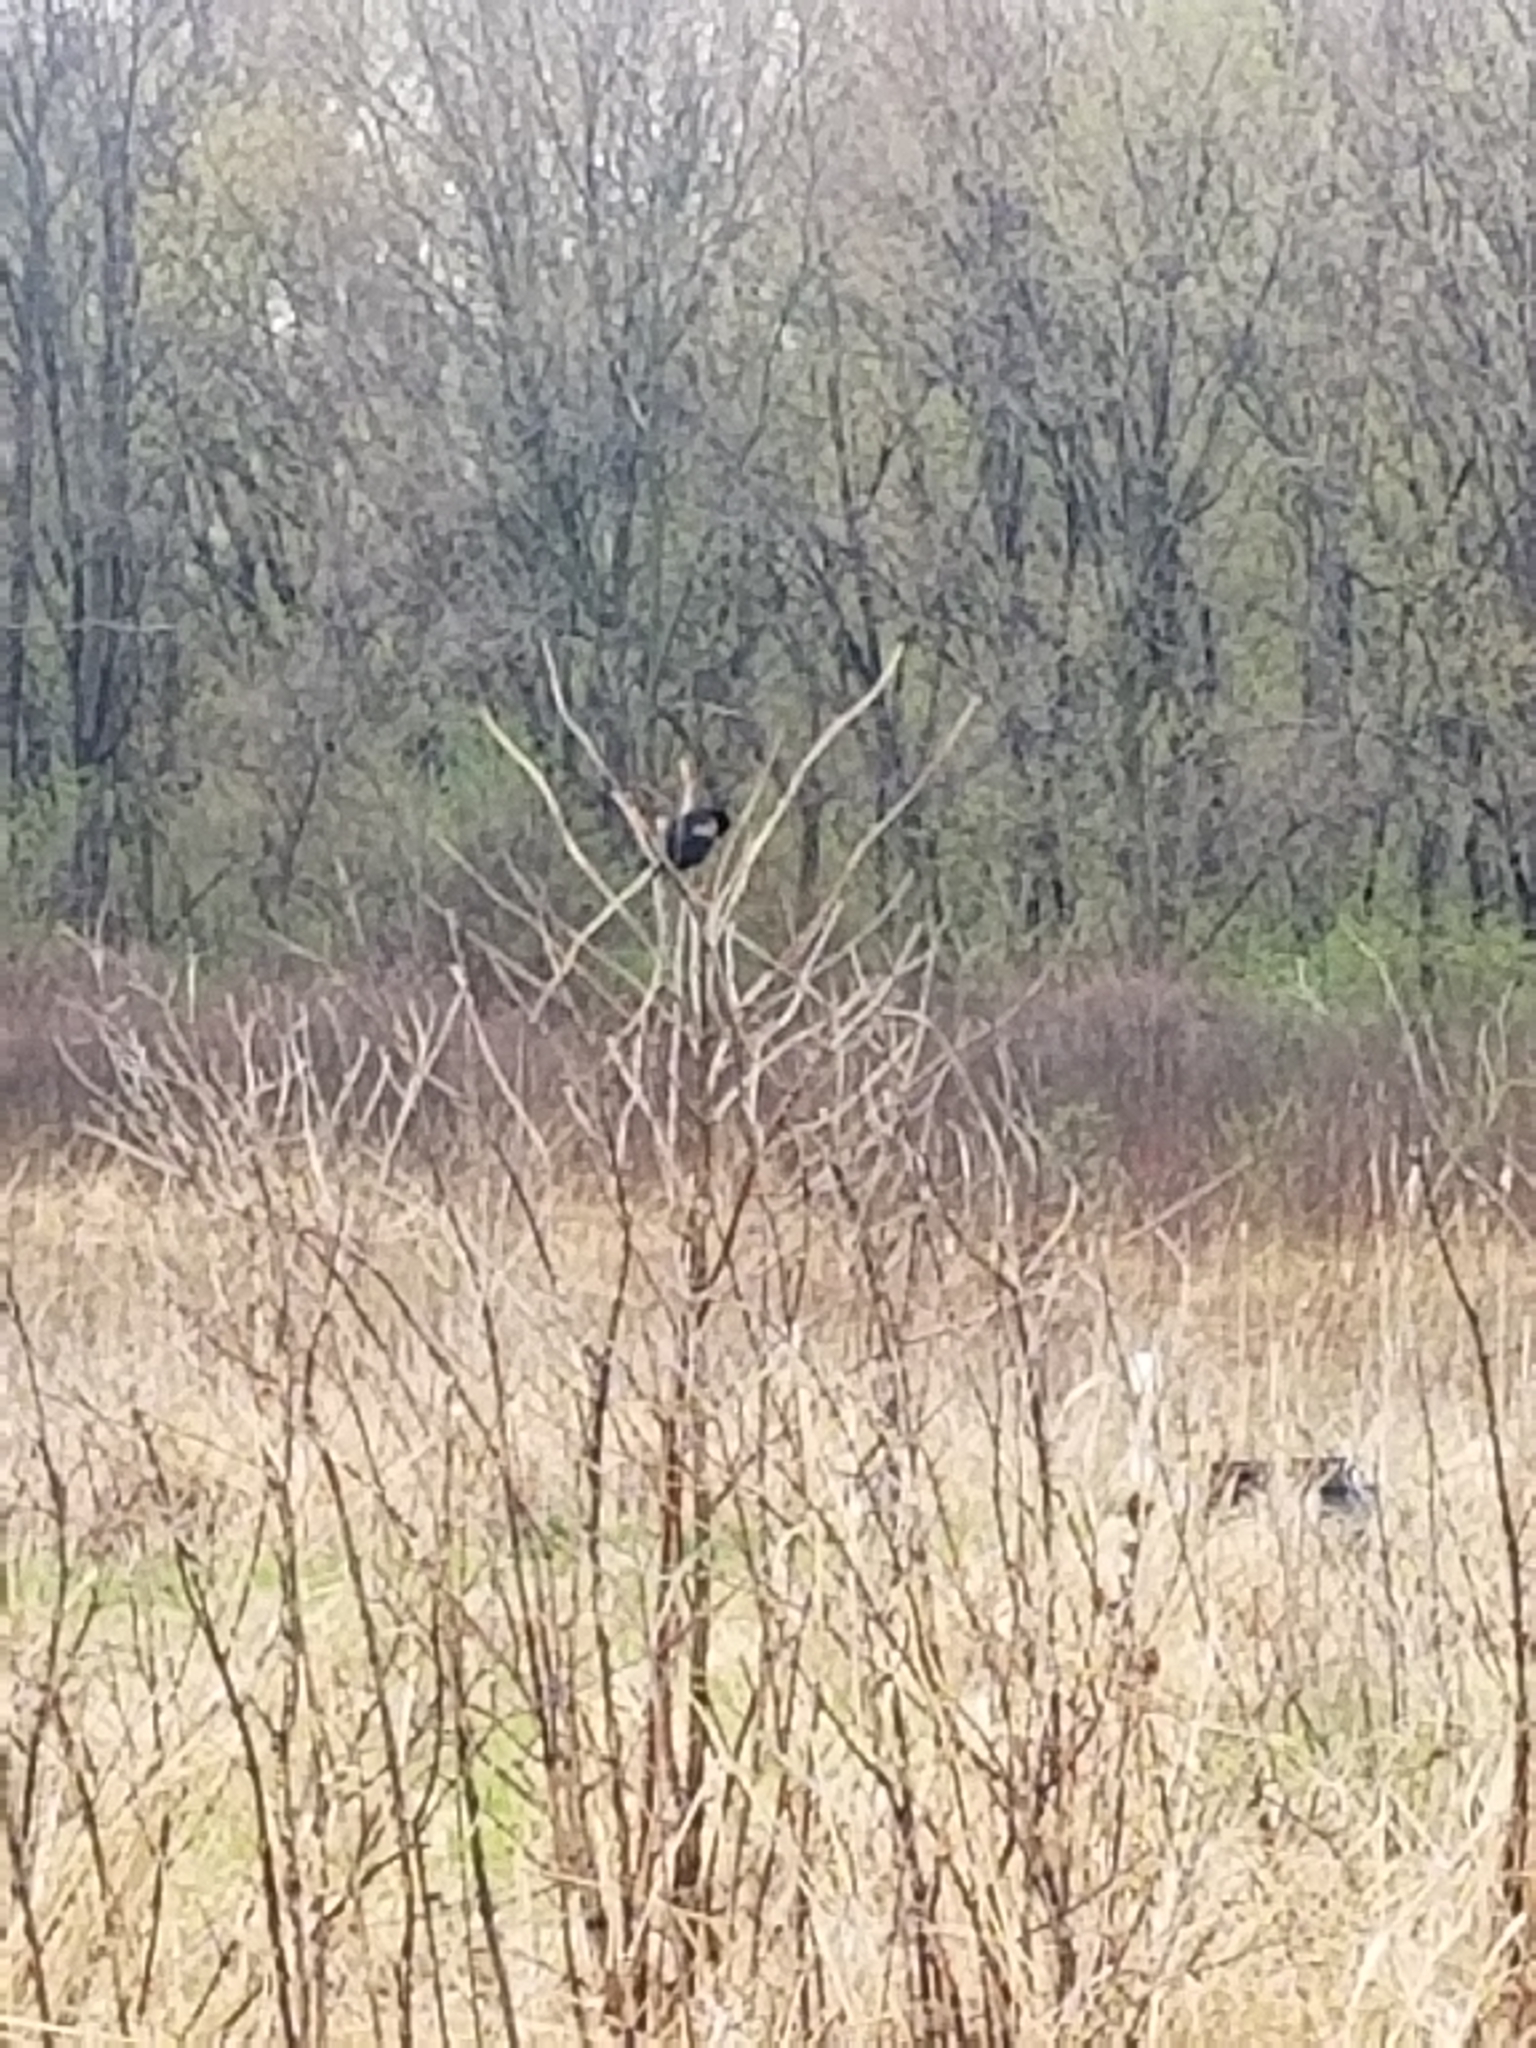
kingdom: Animalia
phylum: Chordata
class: Aves
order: Passeriformes
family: Icteridae
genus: Agelaius
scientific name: Agelaius phoeniceus
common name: Red-winged blackbird
